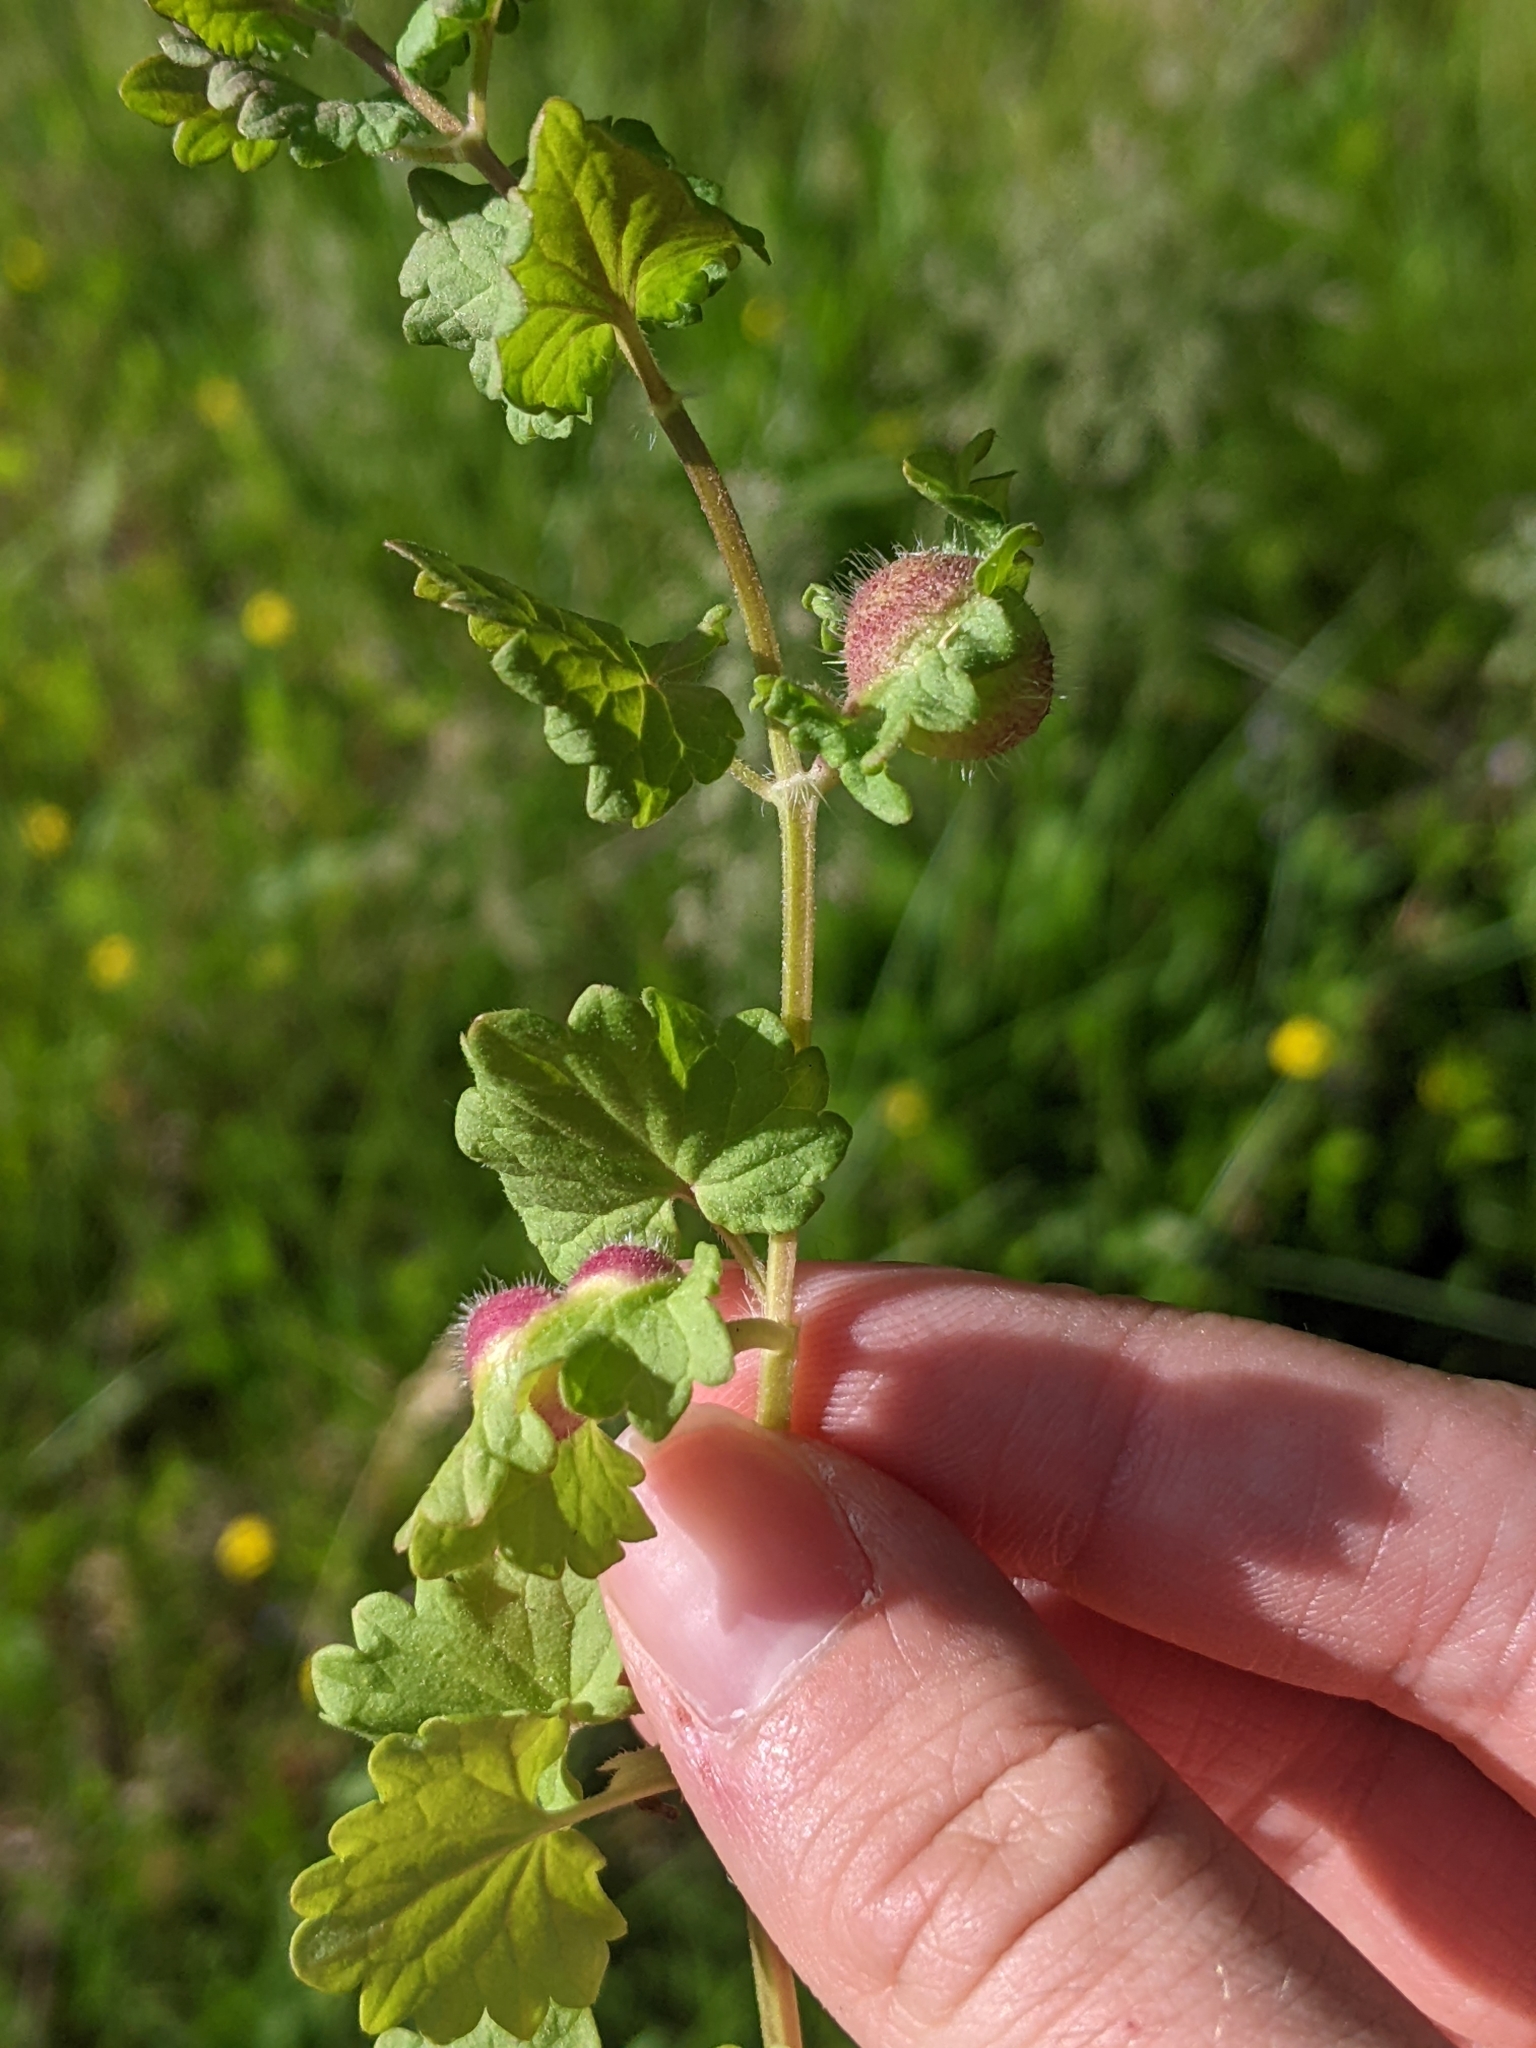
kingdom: Animalia
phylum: Arthropoda
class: Insecta
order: Hymenoptera
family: Cynipidae
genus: Liposthenes
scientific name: Liposthenes glechomae
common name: Gall wasp
